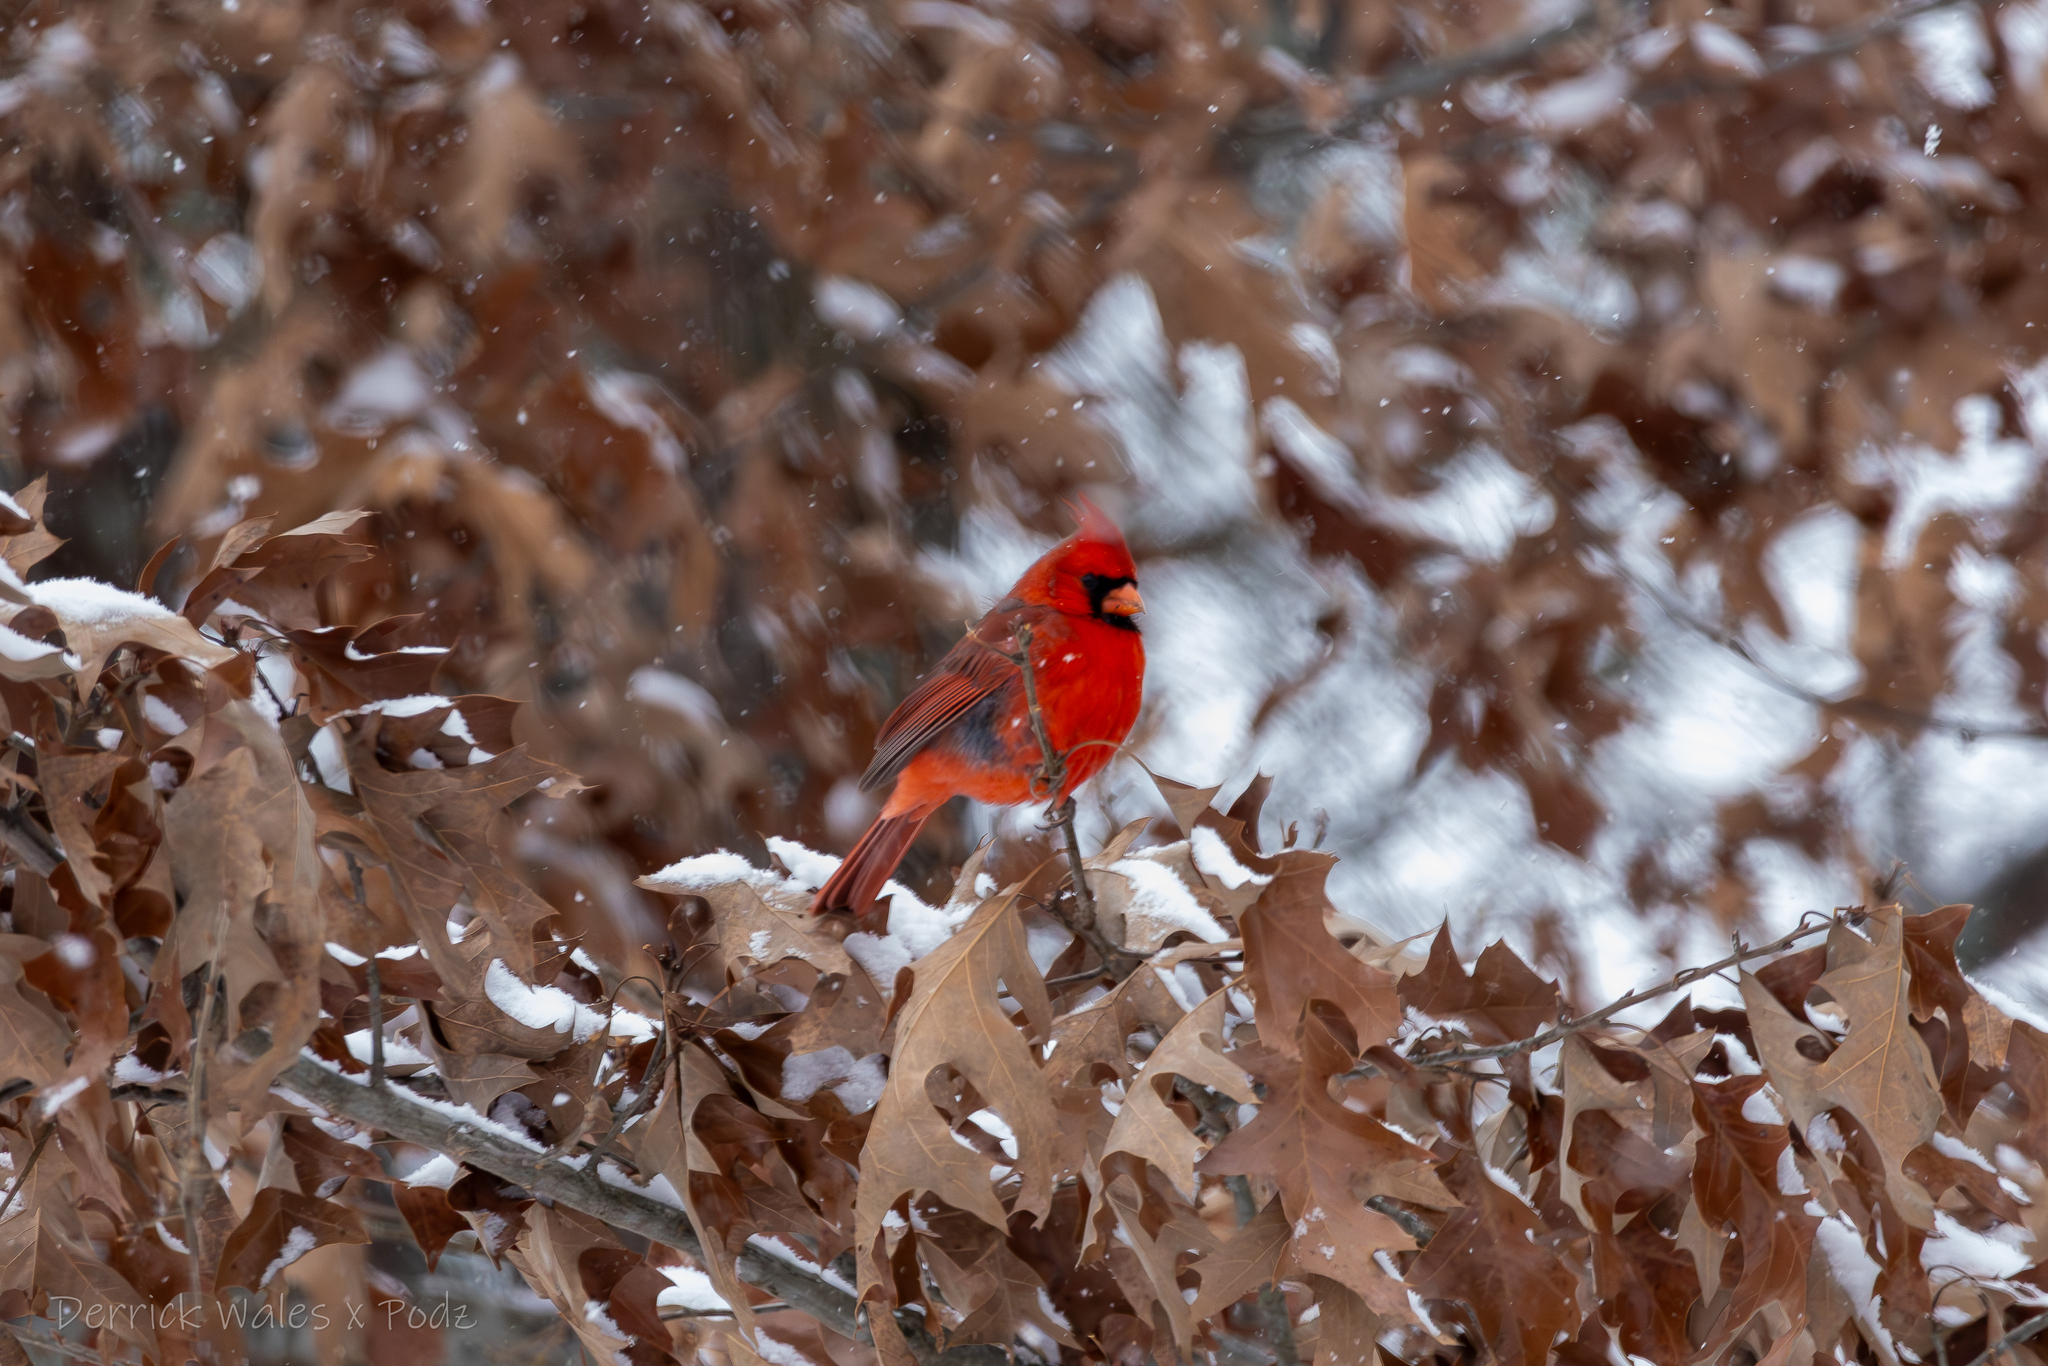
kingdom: Animalia
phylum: Chordata
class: Aves
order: Passeriformes
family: Cardinalidae
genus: Cardinalis
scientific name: Cardinalis cardinalis
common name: Northern cardinal
